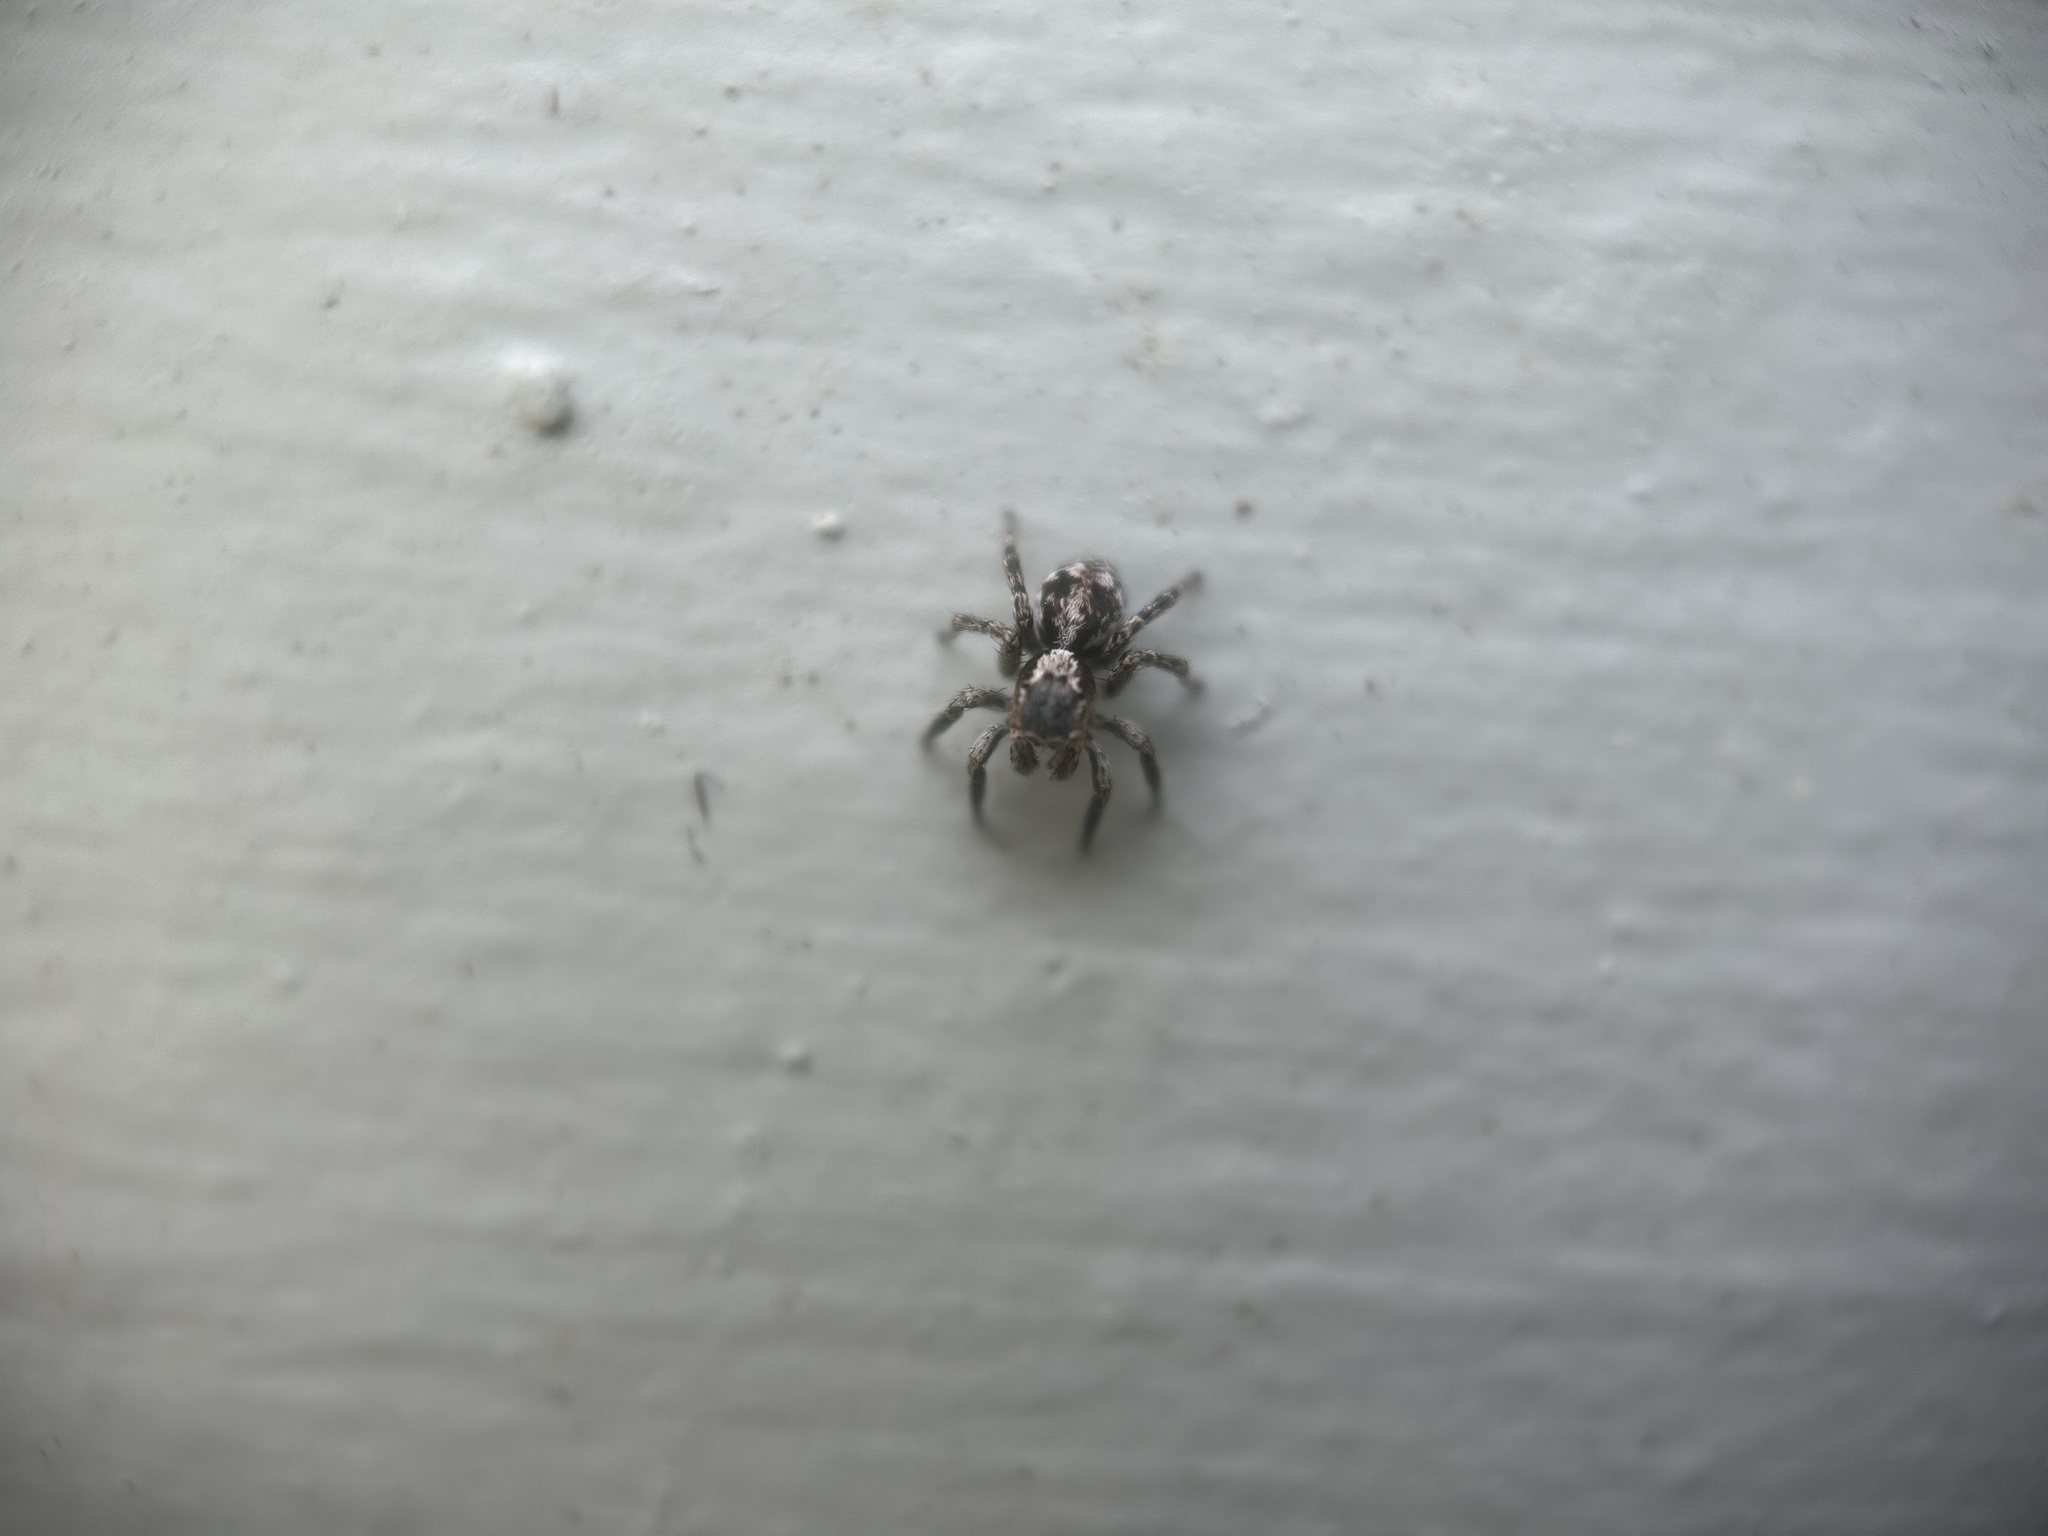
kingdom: Animalia
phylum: Arthropoda
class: Arachnida
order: Araneae
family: Salticidae
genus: Naphrys
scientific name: Naphrys pulex
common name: Flea jumping spider
